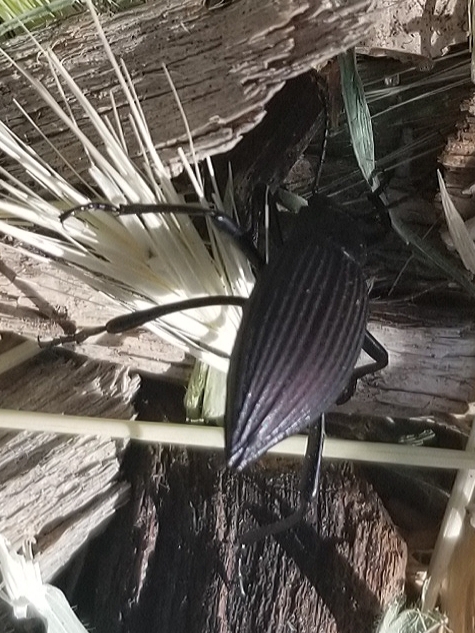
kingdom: Animalia
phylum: Arthropoda
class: Insecta
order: Coleoptera
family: Tenebrionidae
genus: Eleodes
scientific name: Eleodes hispilabris
